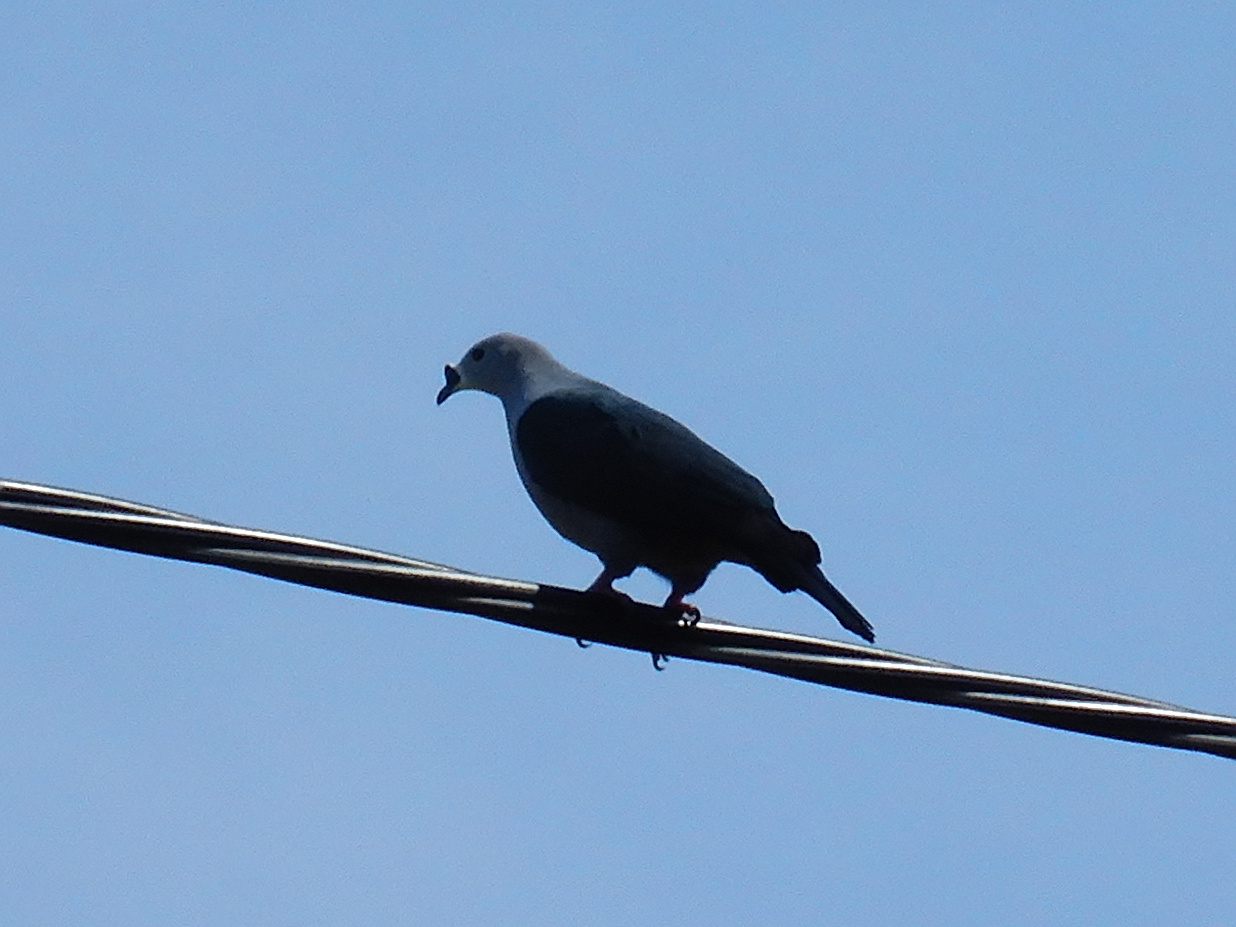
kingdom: Animalia
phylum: Chordata
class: Aves
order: Columbiformes
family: Columbidae
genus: Ducula
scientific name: Ducula pacifica
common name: Pacific imperial-pigeon
